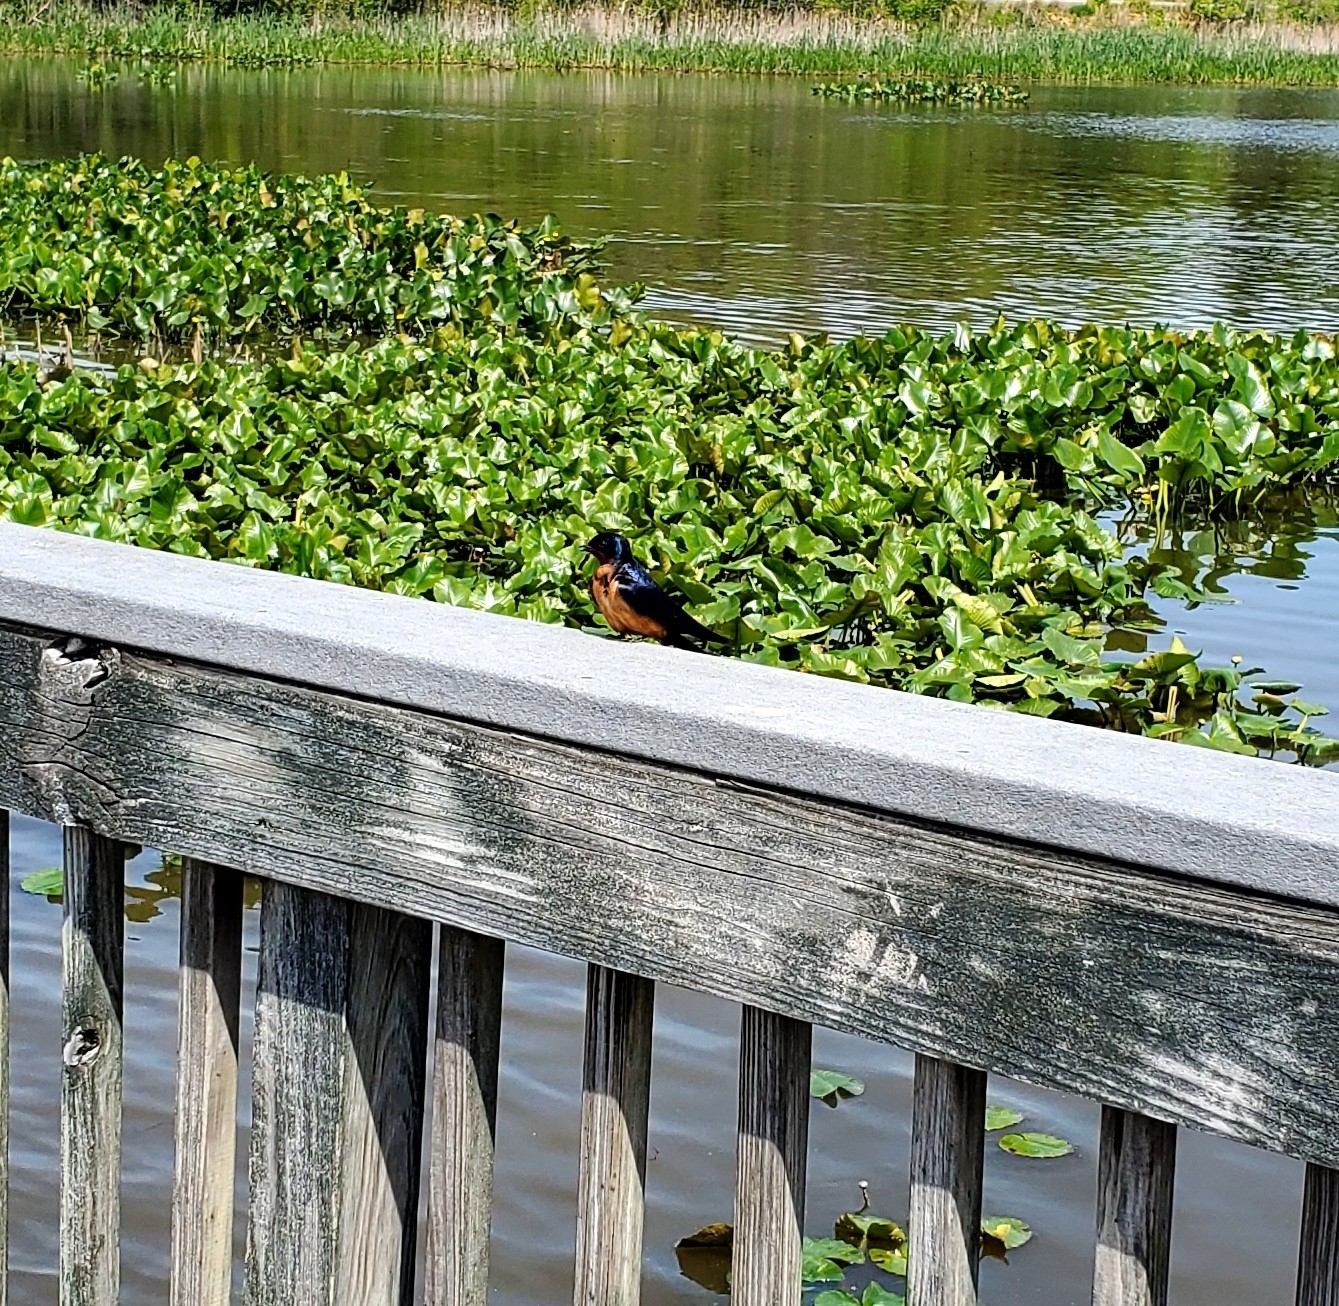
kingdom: Animalia
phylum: Chordata
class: Aves
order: Passeriformes
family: Hirundinidae
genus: Hirundo
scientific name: Hirundo rustica
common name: Barn swallow
